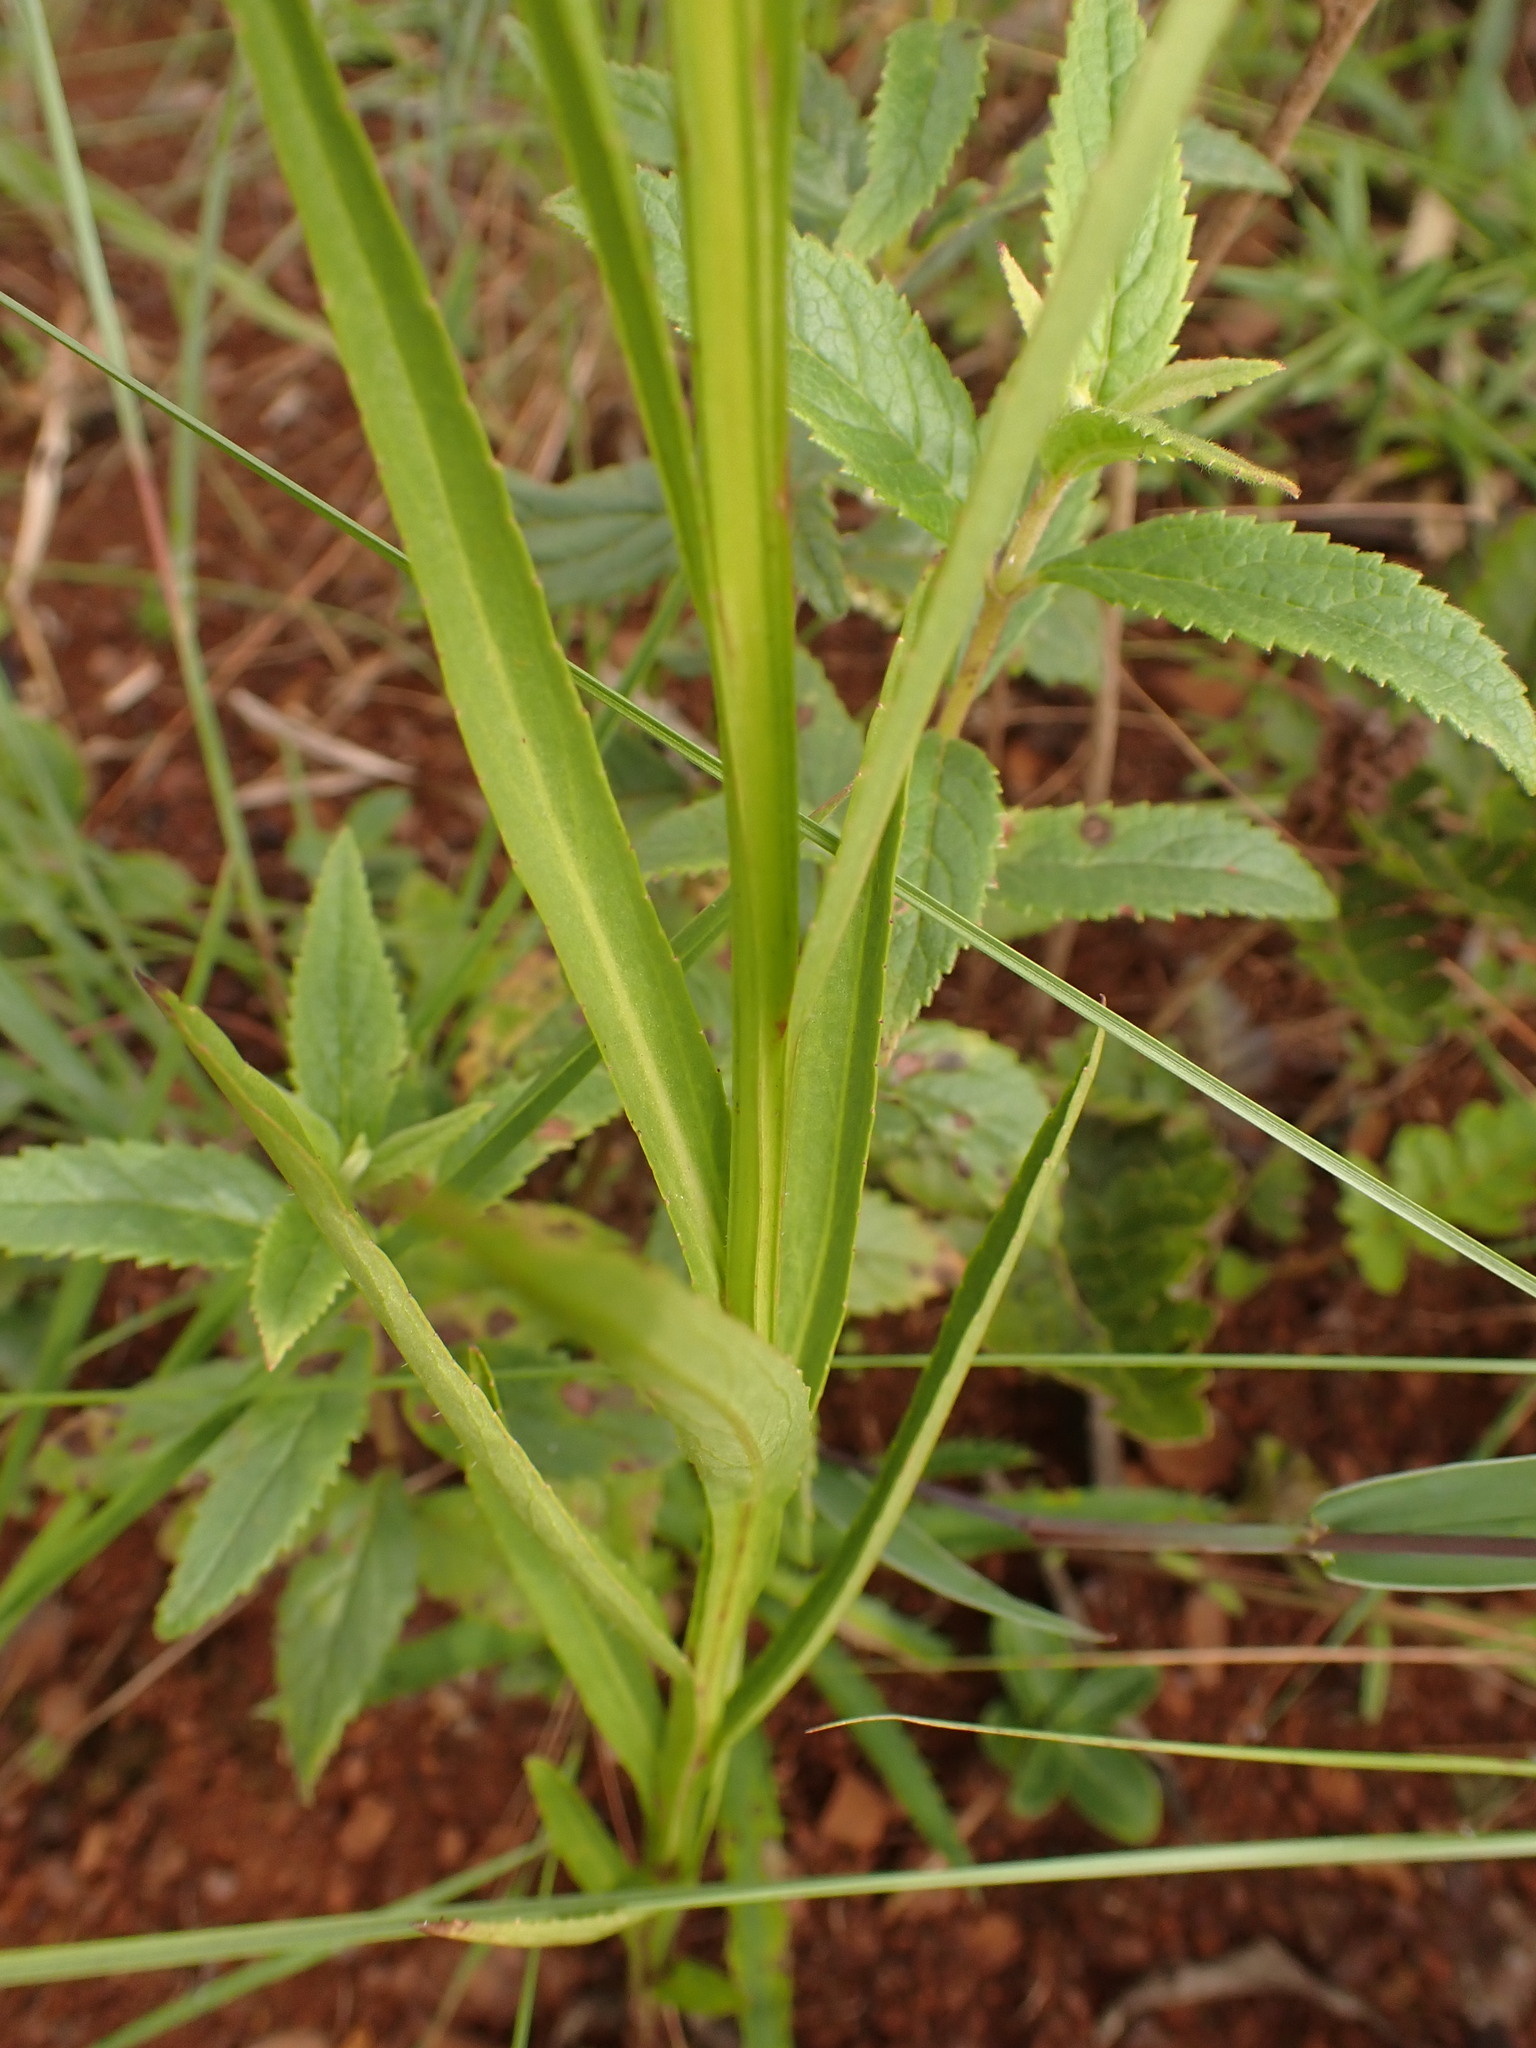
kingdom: Plantae
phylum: Tracheophyta
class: Magnoliopsida
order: Asterales
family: Campanulaceae
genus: Lobelia
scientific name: Lobelia camporum
